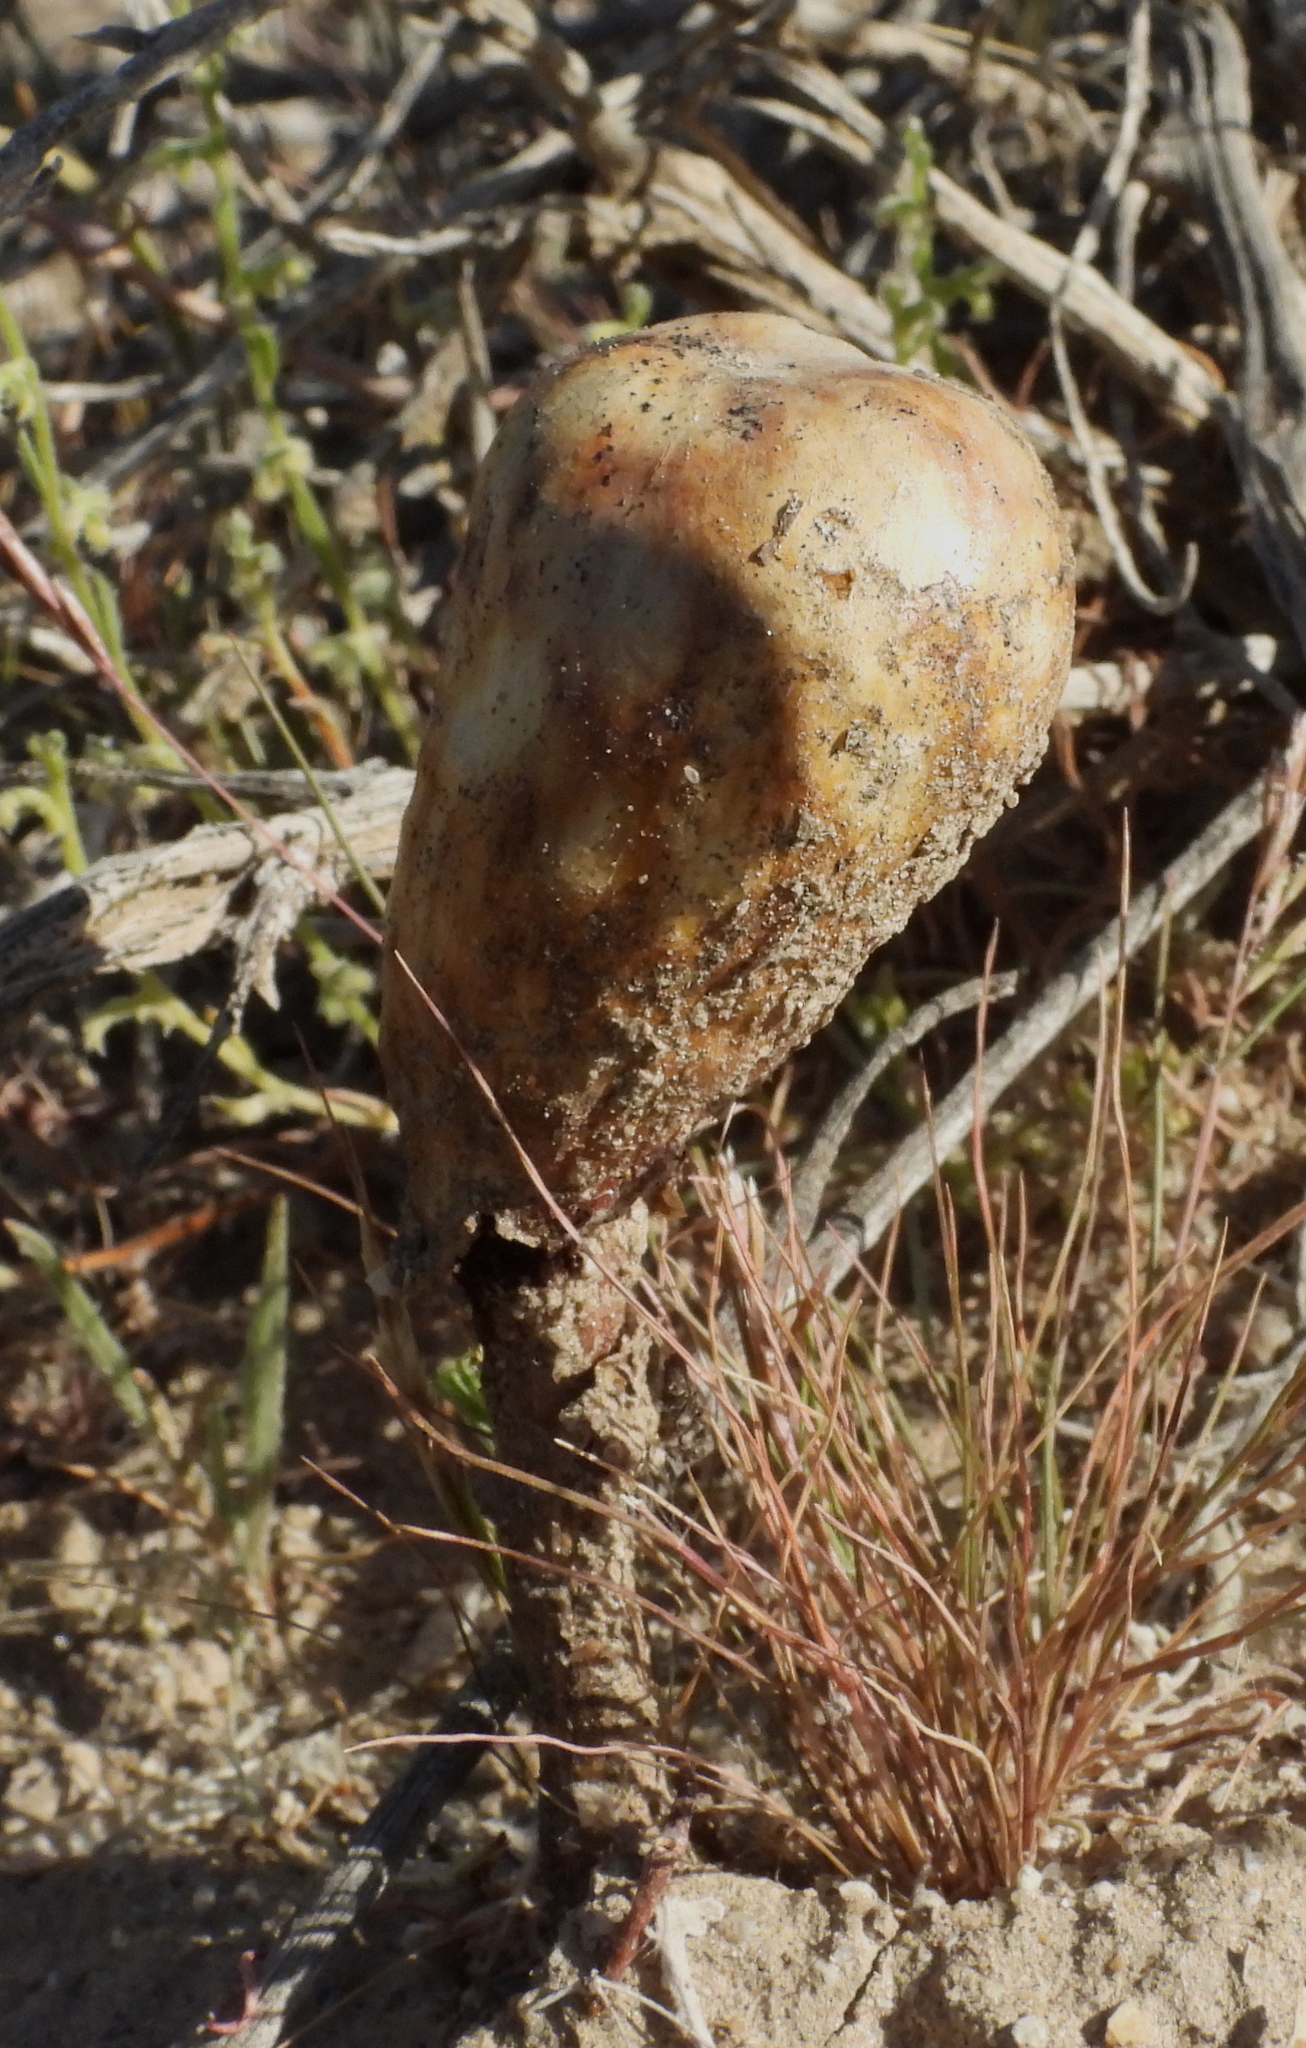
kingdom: Fungi
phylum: Basidiomycota
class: Agaricomycetes
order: Agaricales
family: Agaricaceae
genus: Podaxis
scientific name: Podaxis pistillaris
